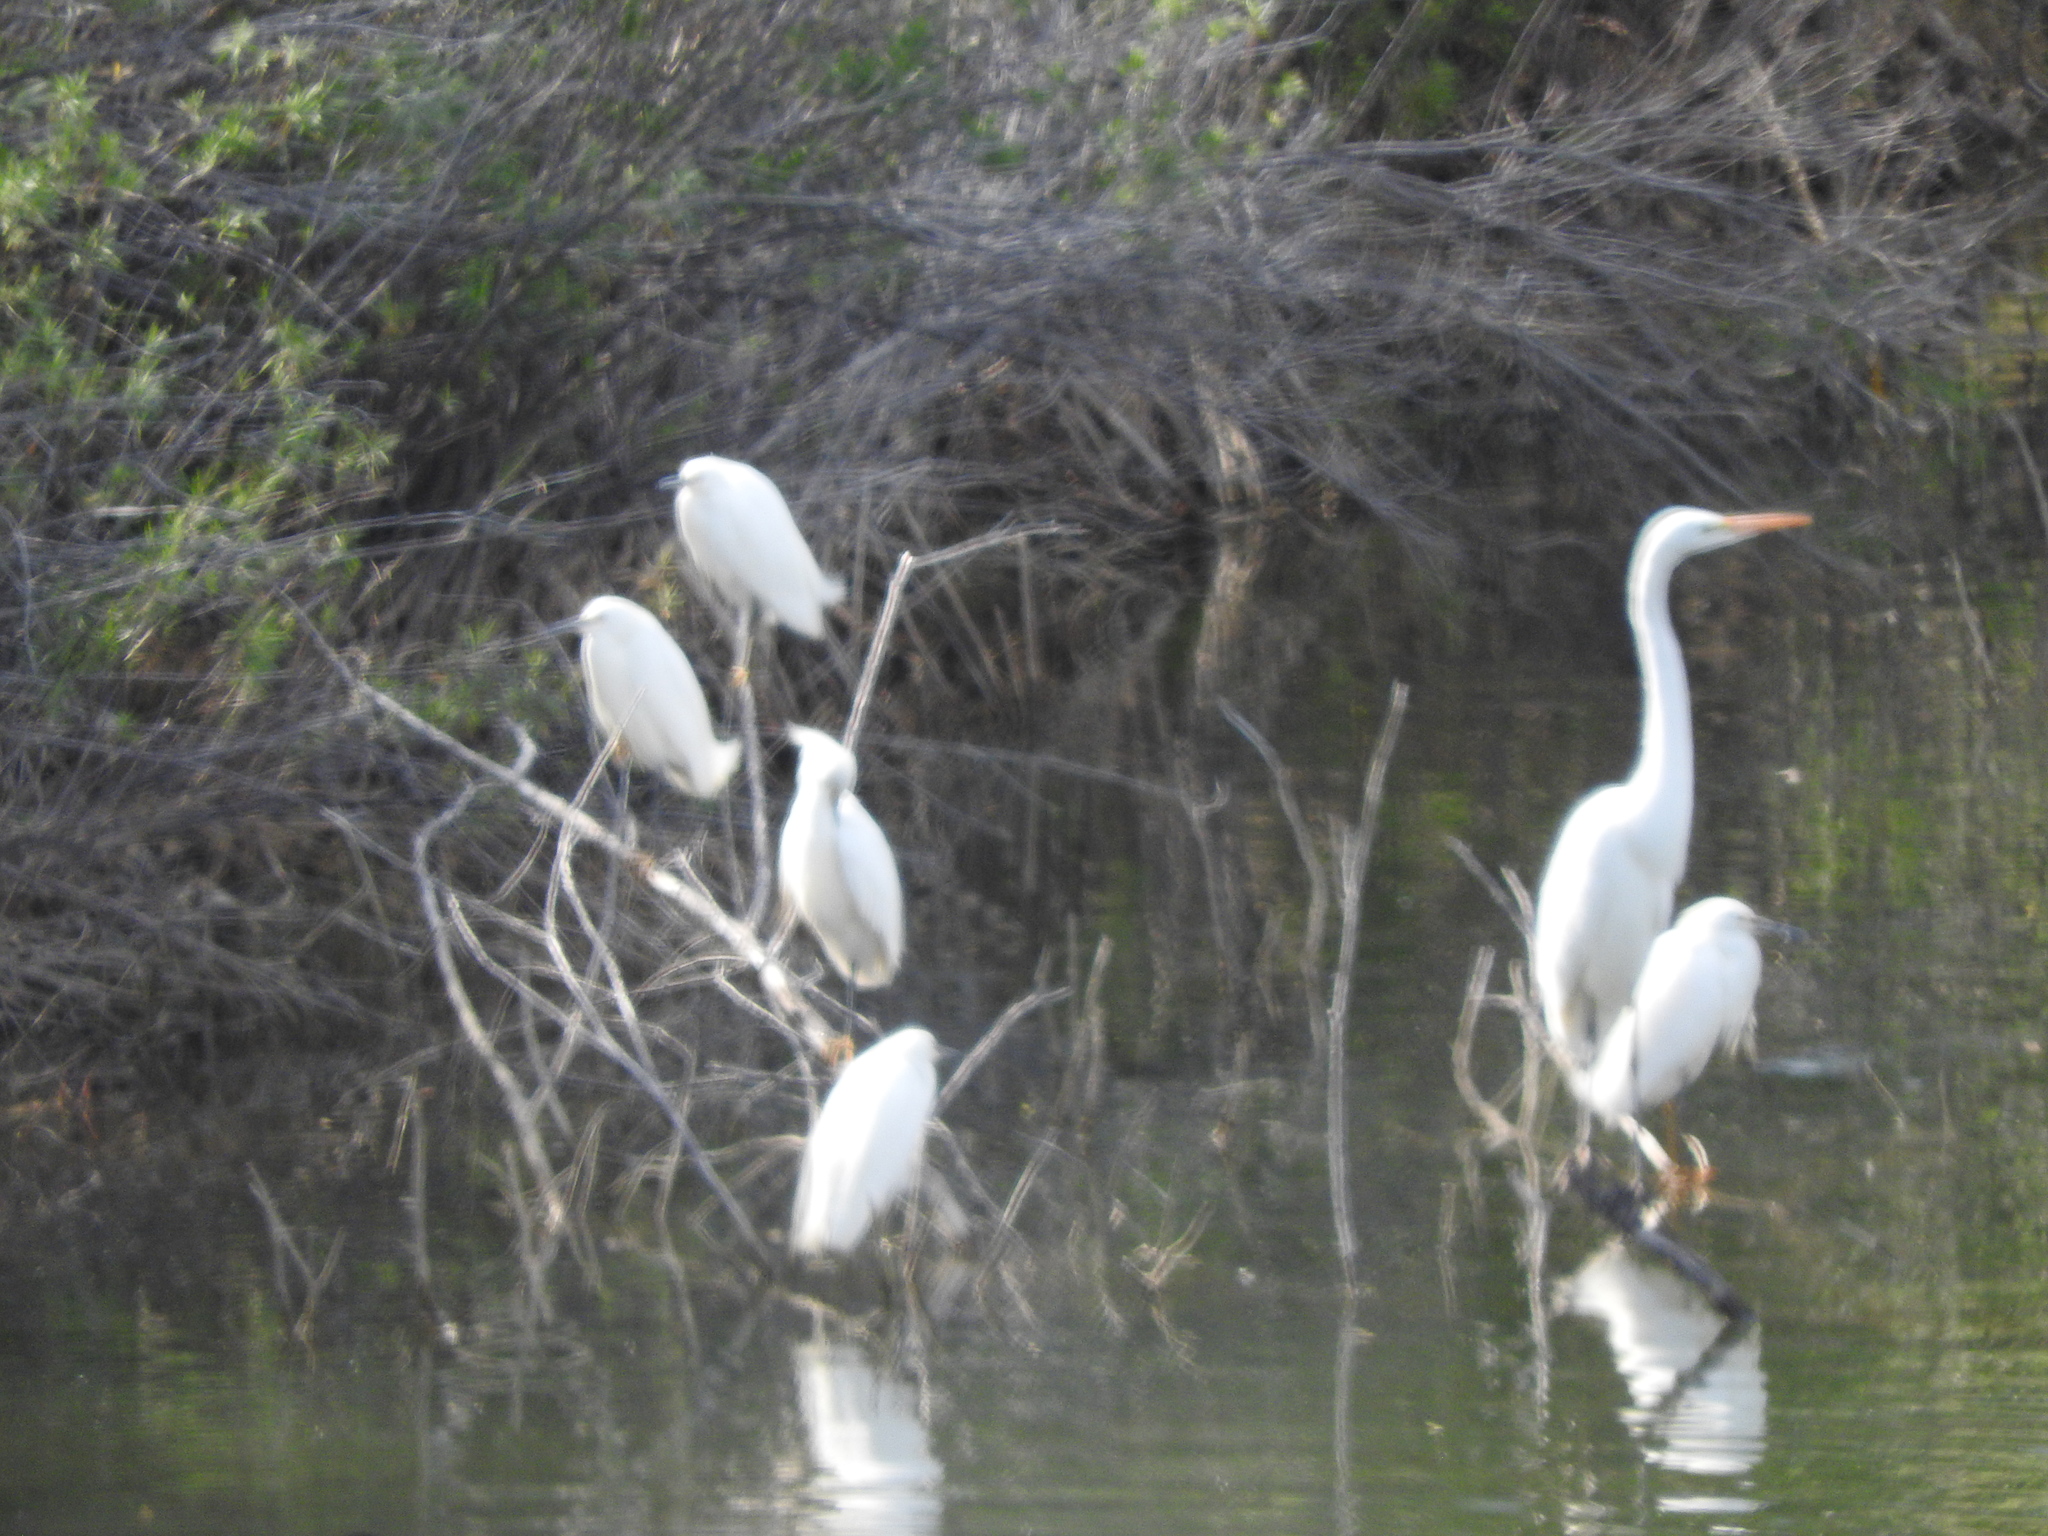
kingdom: Animalia
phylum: Chordata
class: Aves
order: Pelecaniformes
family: Ardeidae
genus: Ardea
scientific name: Ardea alba
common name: Great egret
